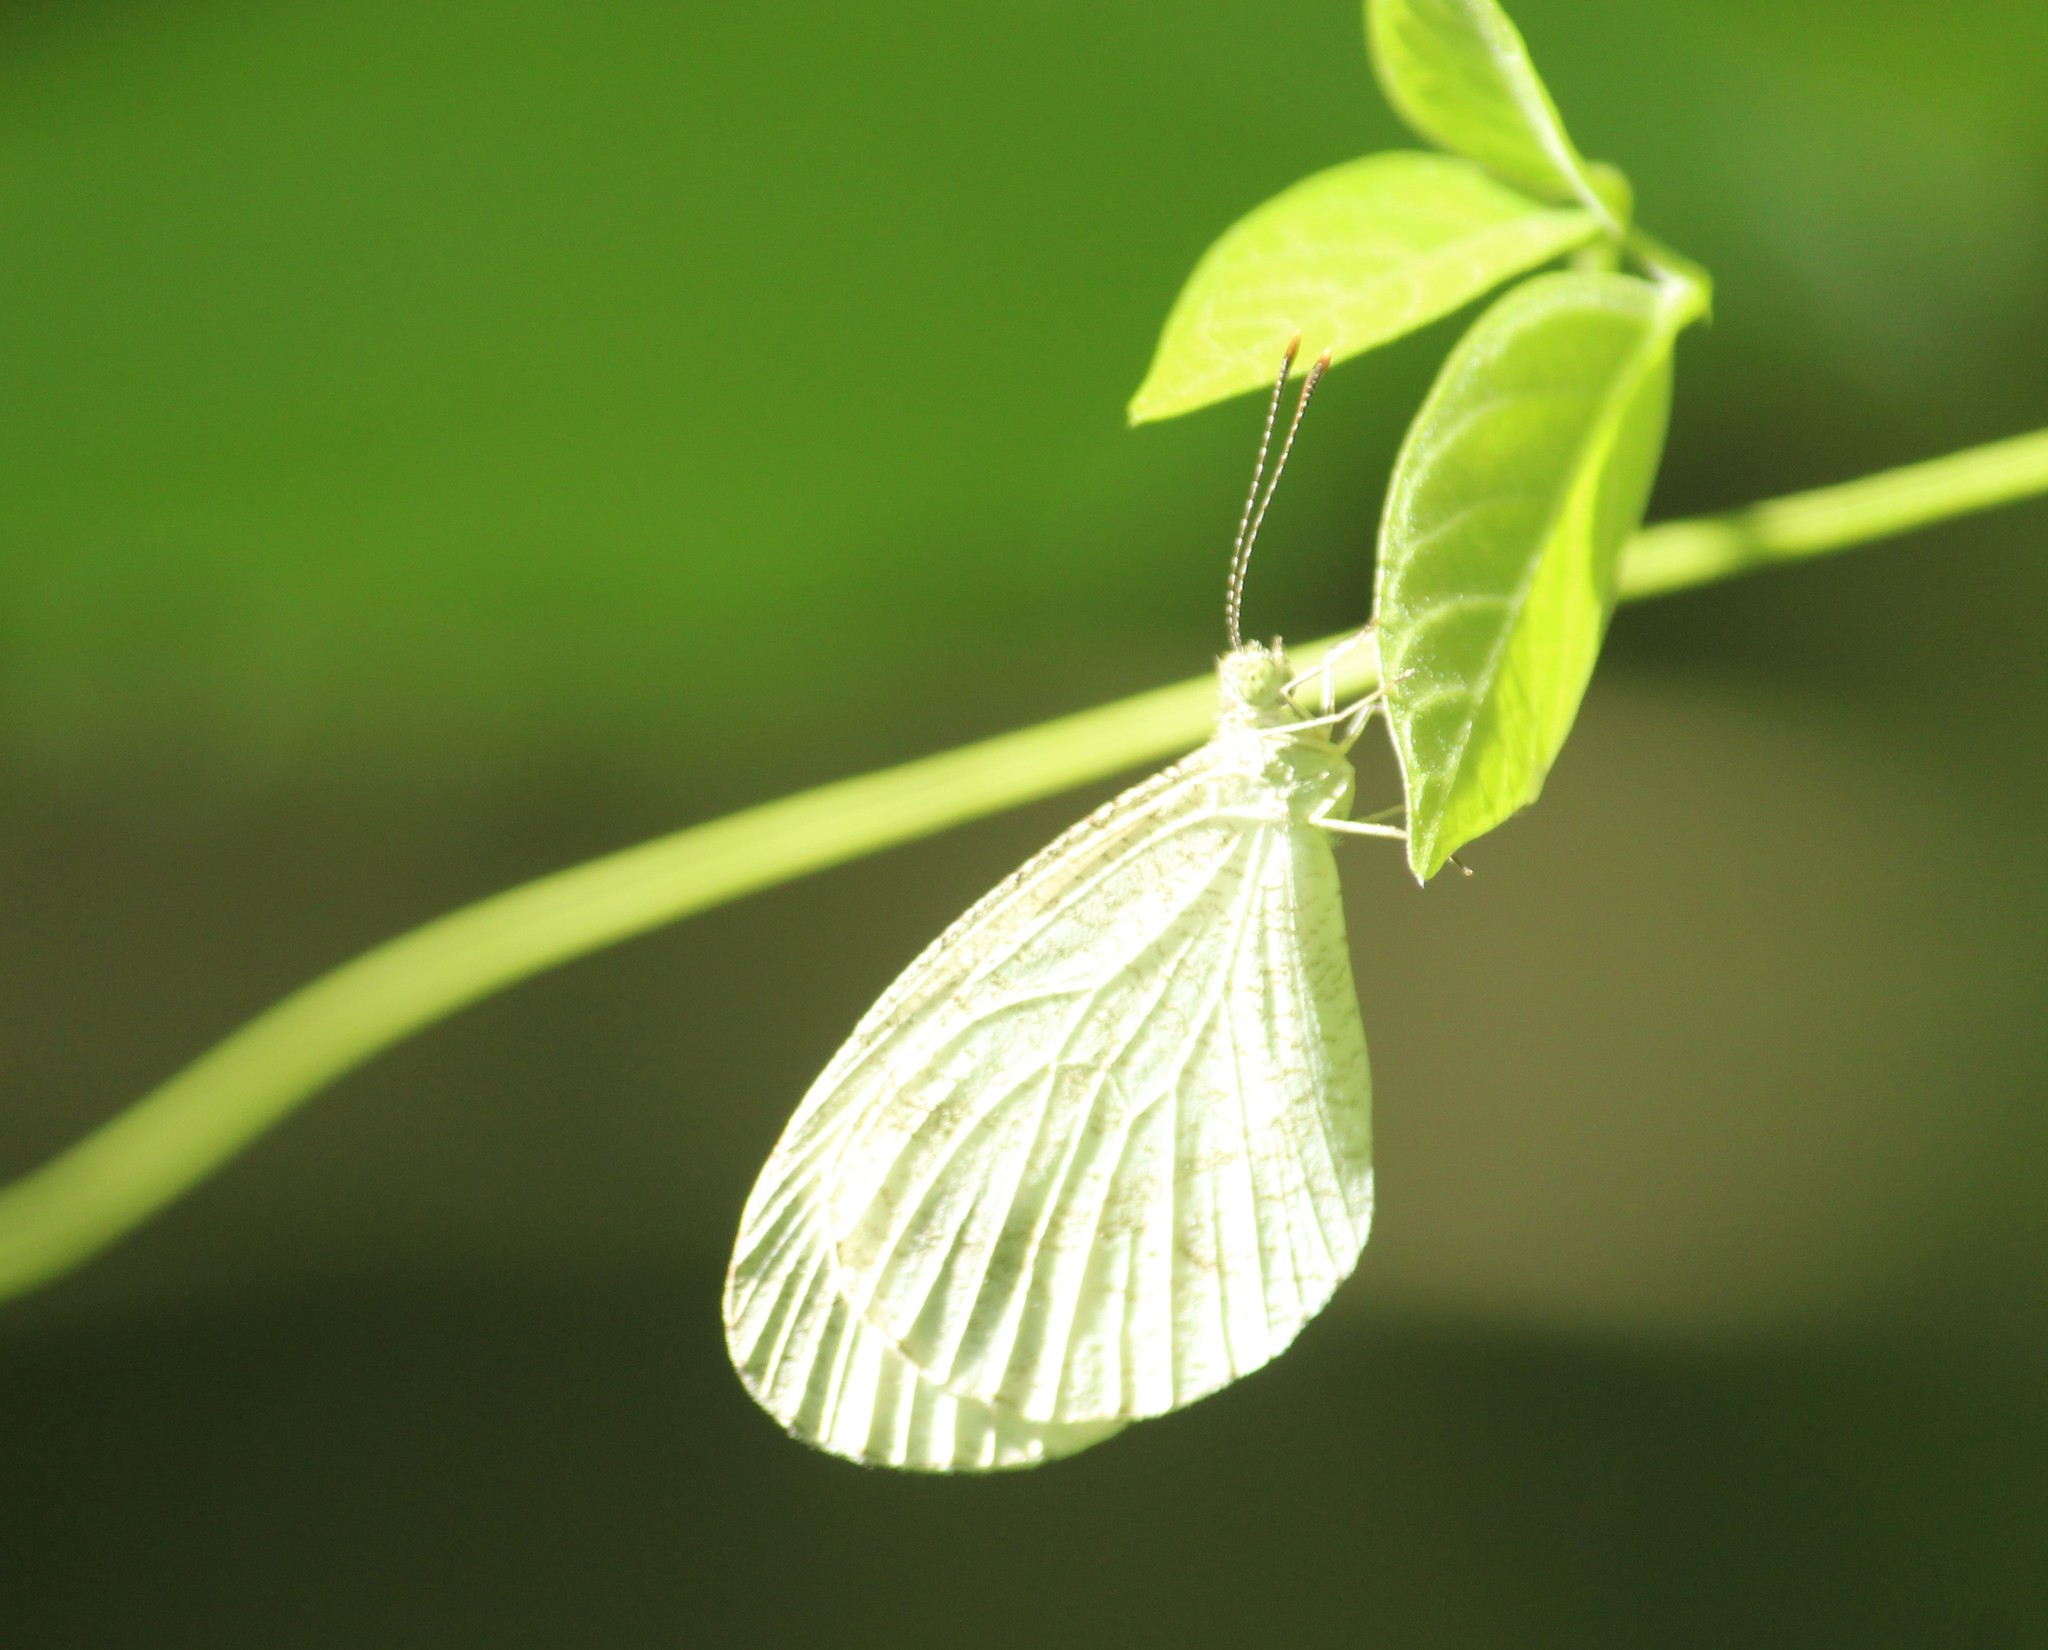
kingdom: Animalia
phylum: Arthropoda
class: Insecta
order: Lepidoptera
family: Pieridae
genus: Leptosia
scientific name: Leptosia nina
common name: Psyche
